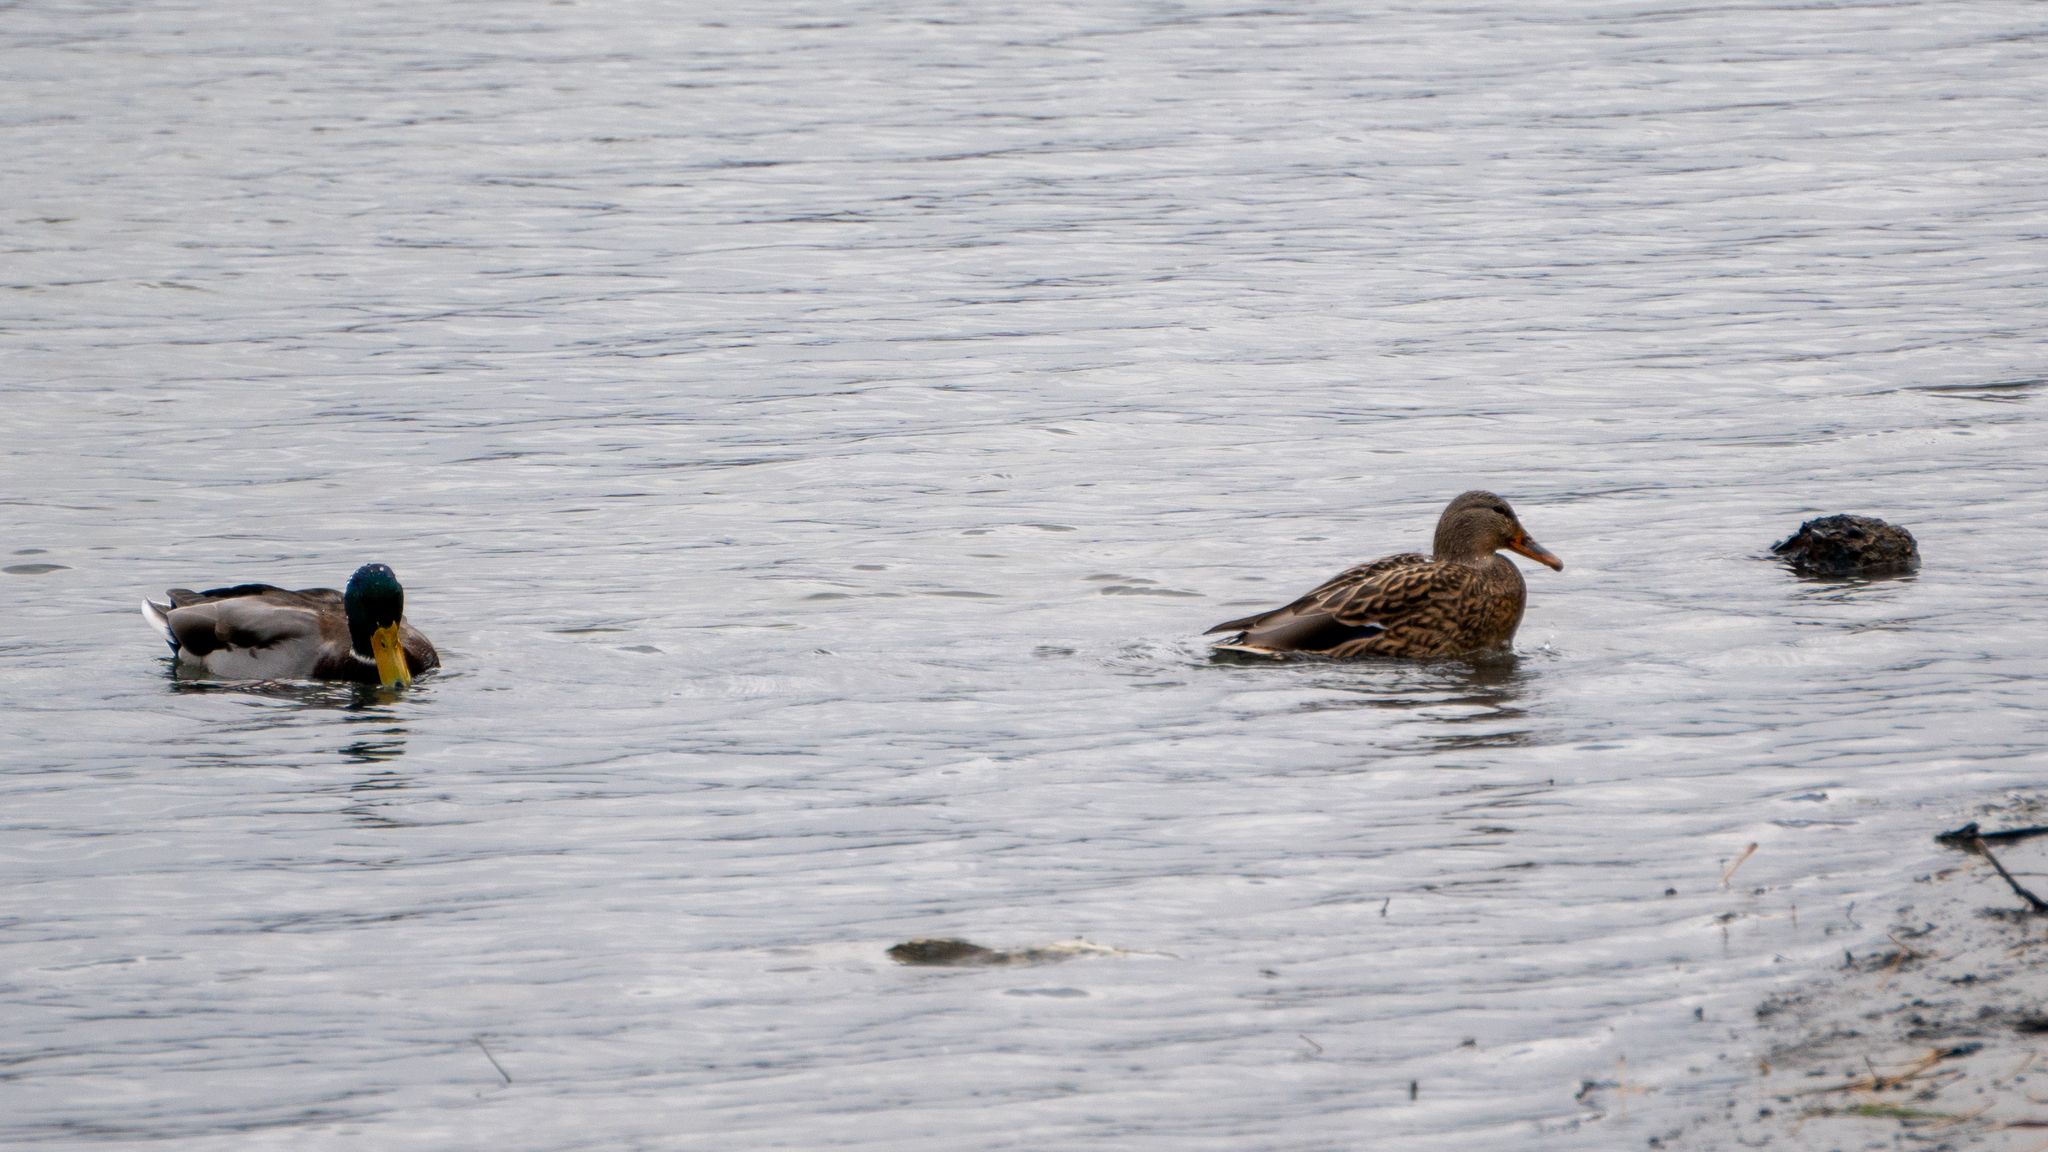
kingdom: Animalia
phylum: Chordata
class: Aves
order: Anseriformes
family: Anatidae
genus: Anas
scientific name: Anas platyrhynchos
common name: Mallard
